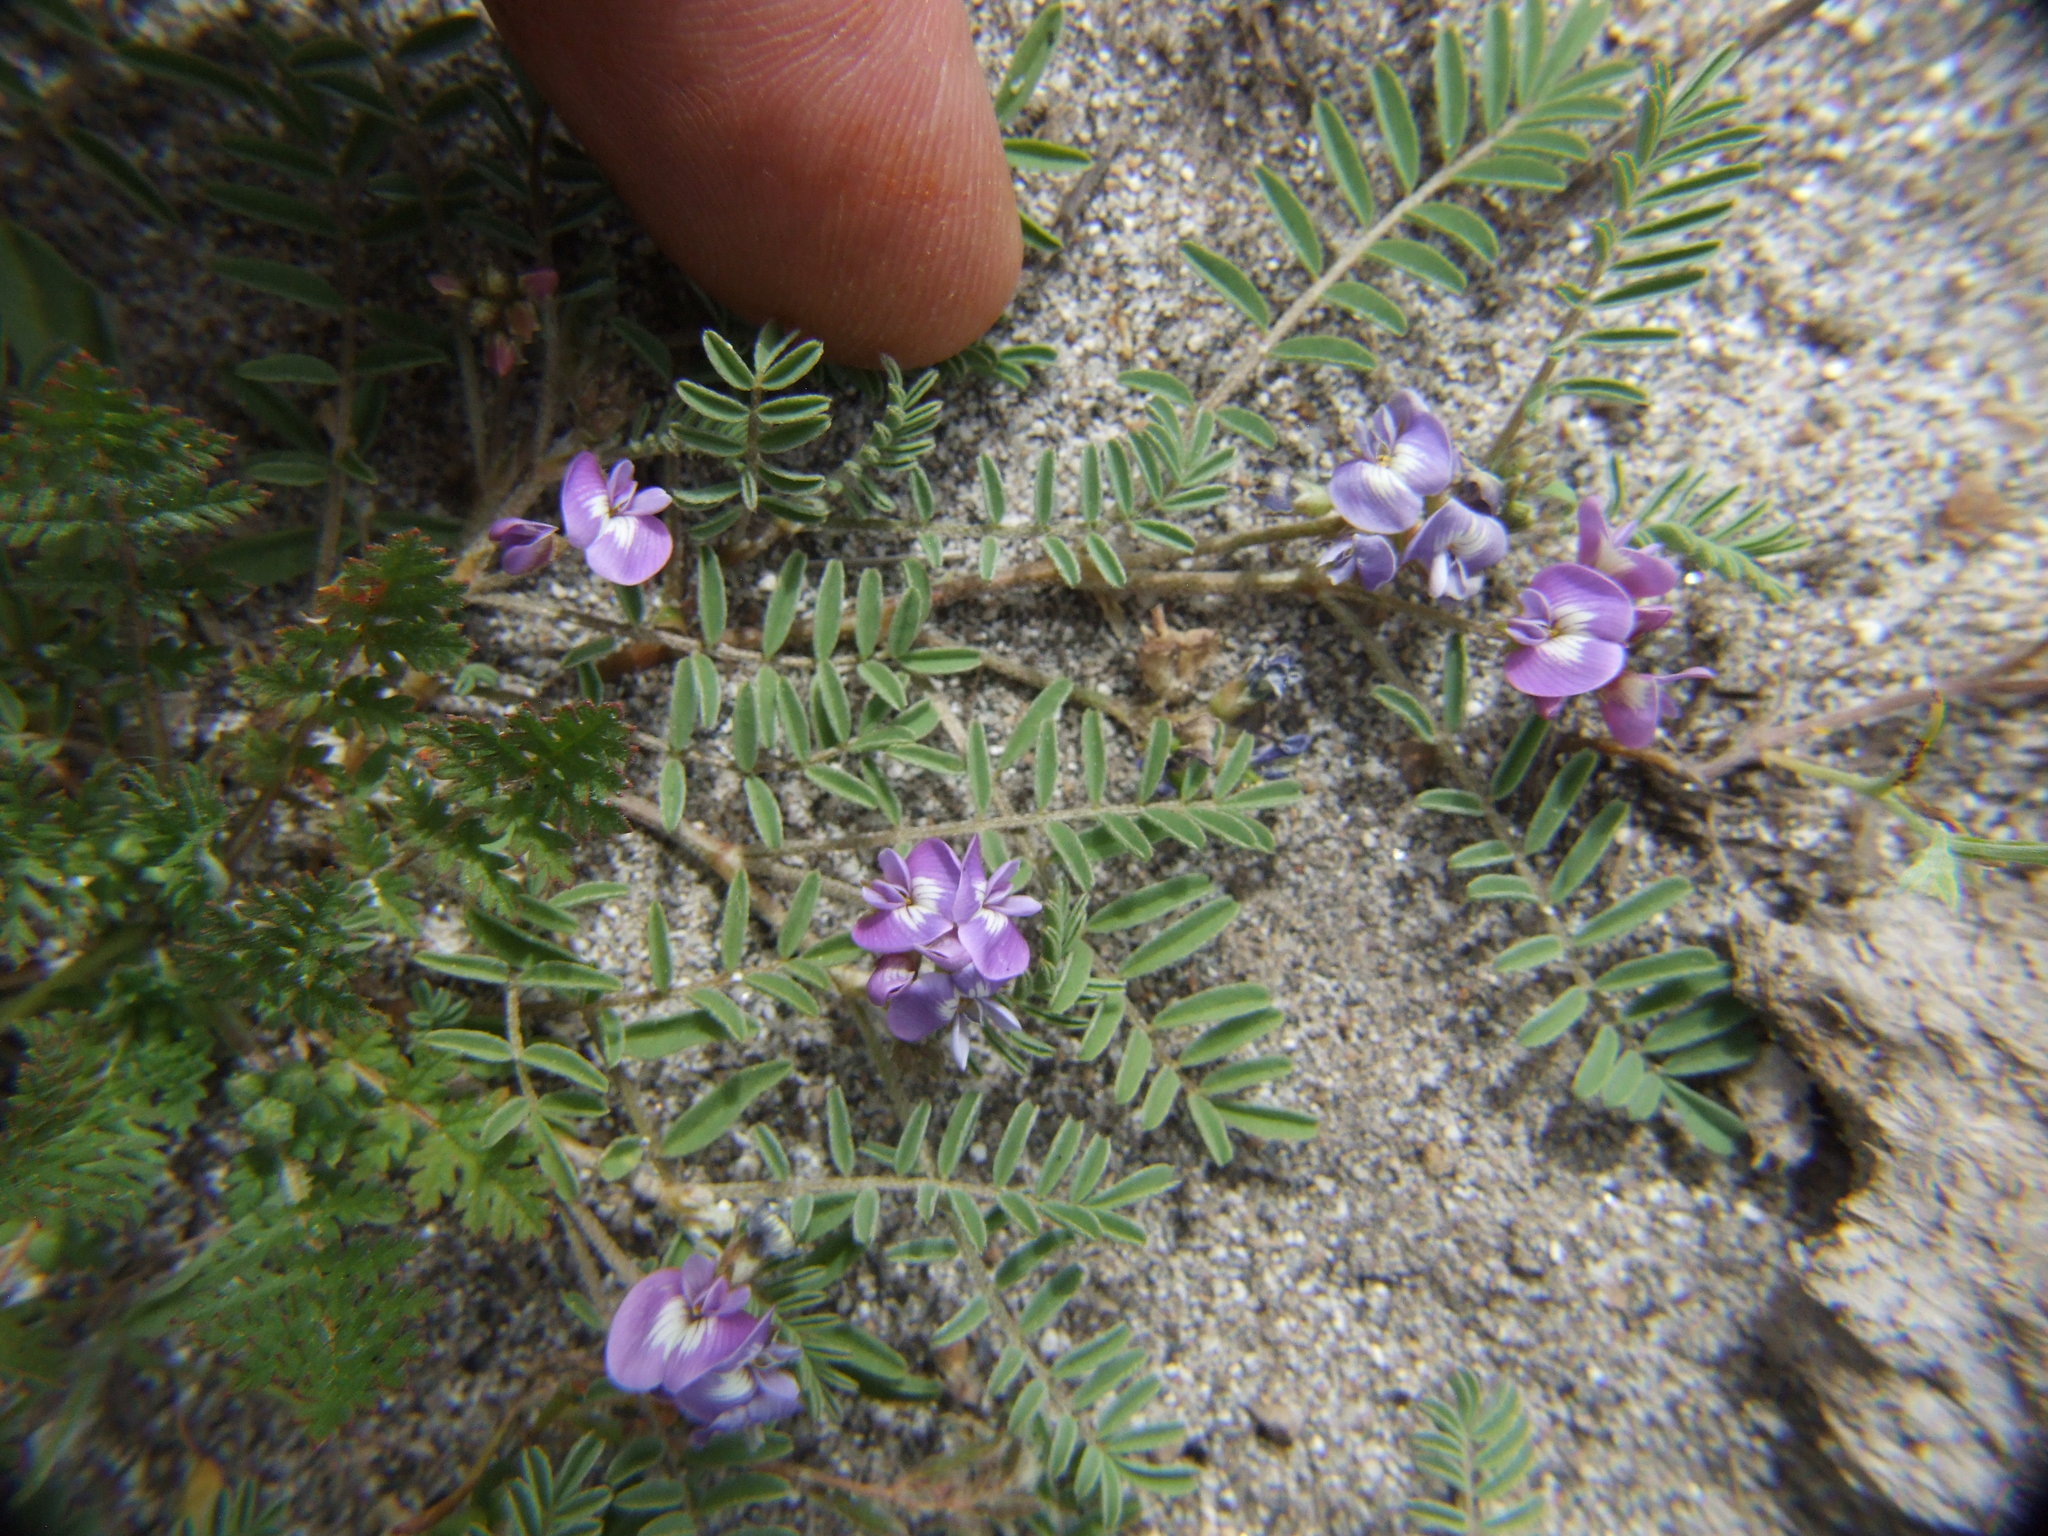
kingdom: Plantae
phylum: Tracheophyta
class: Magnoliopsida
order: Fabales
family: Fabaceae
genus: Astragalus
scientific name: Astragalus micranthellus
